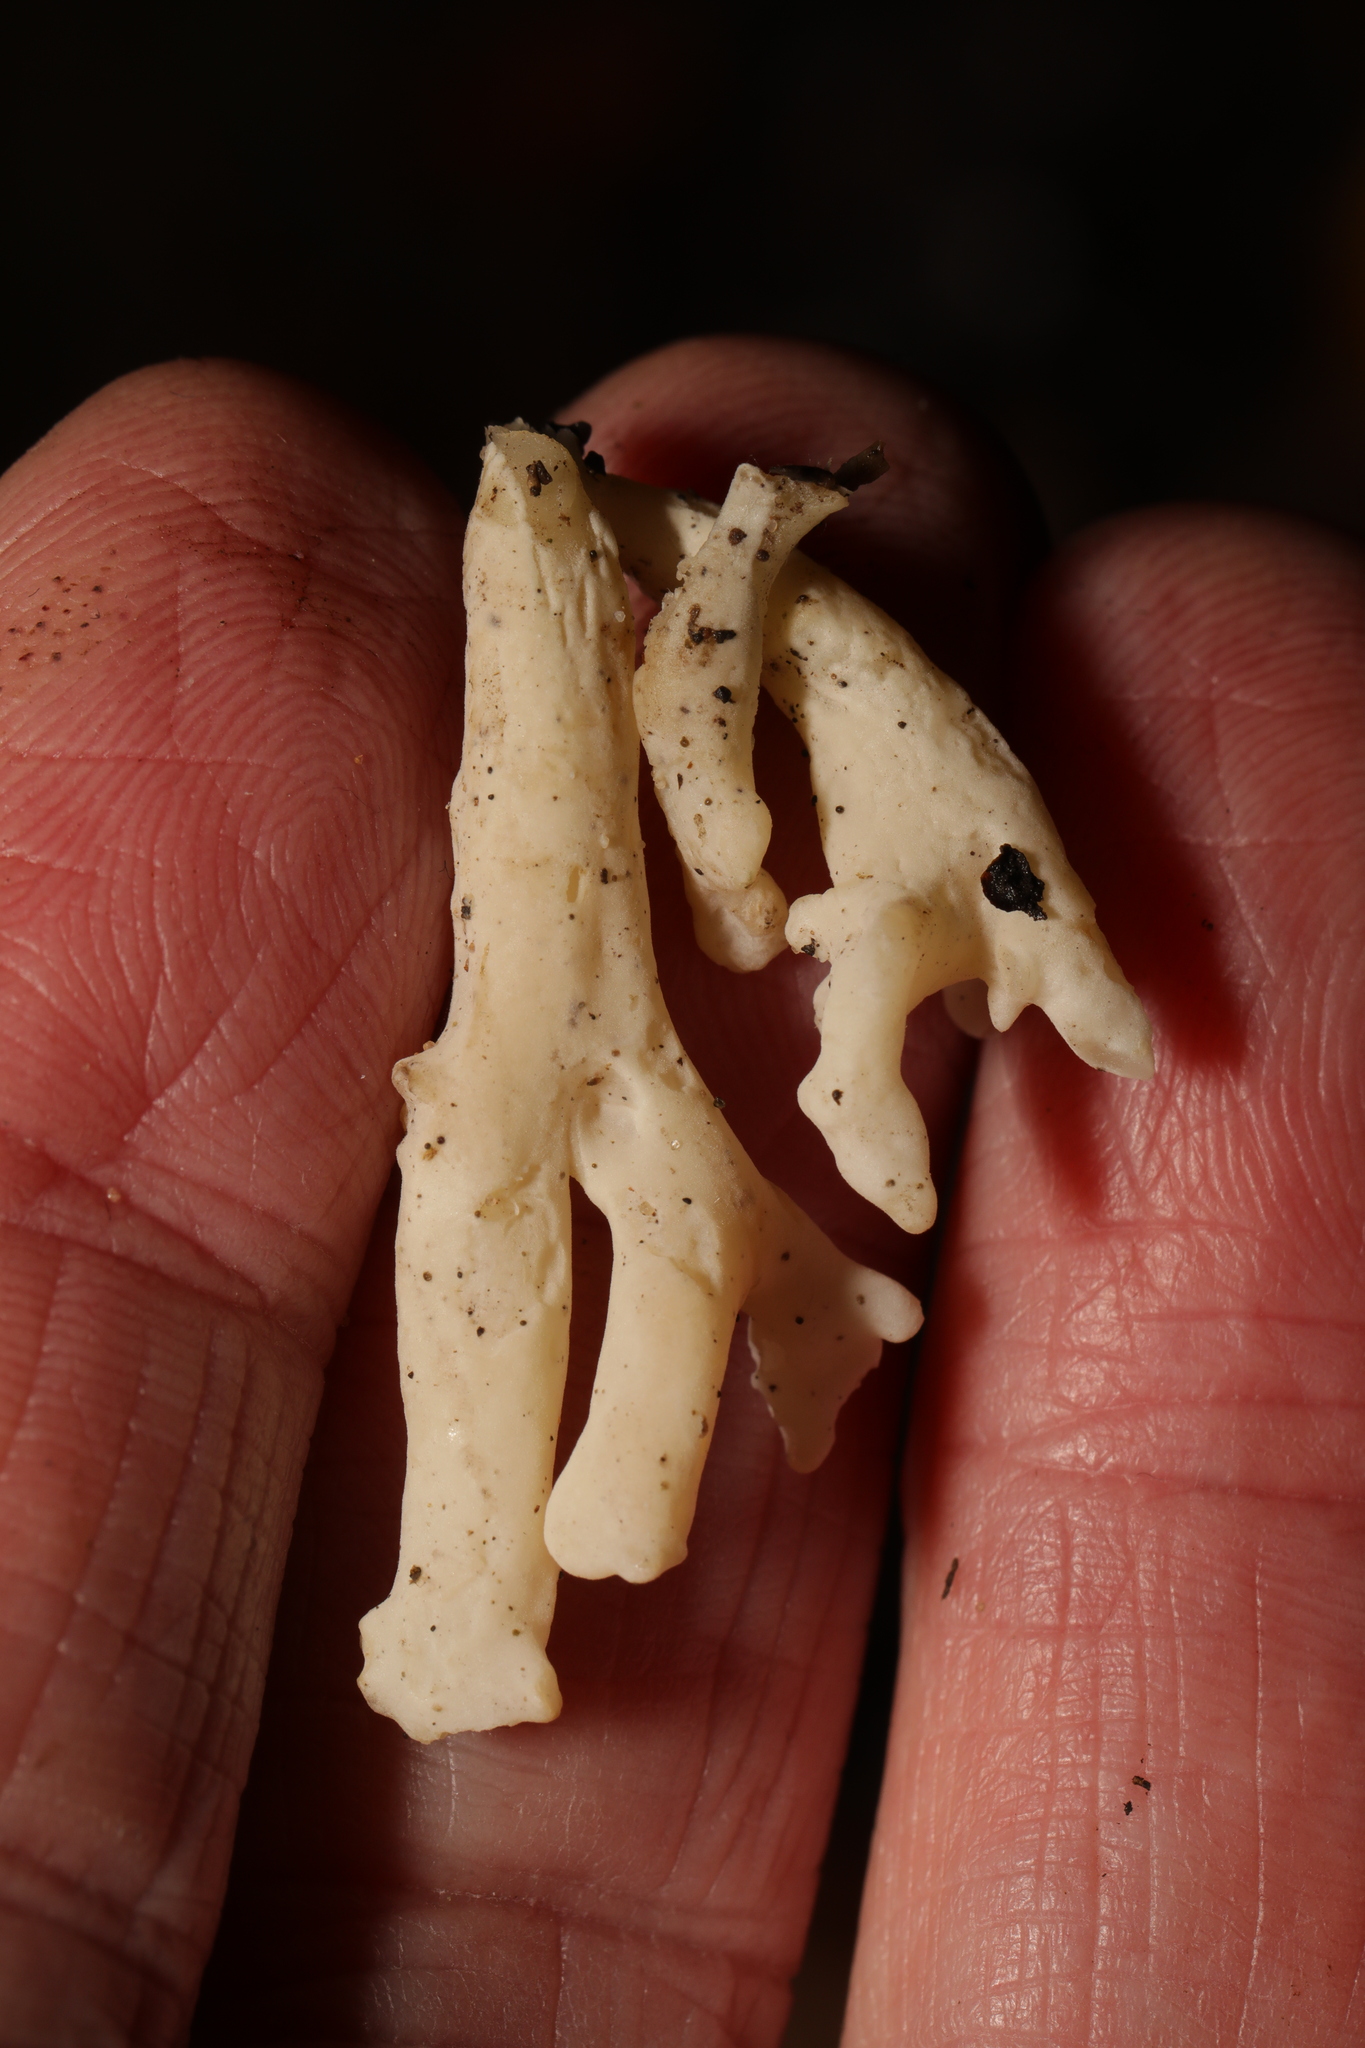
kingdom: Fungi
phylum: Basidiomycota
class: Agaricomycetes
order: Cantharellales
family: Hydnaceae
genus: Clavulina
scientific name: Clavulina rugosa
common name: Wrinkled club
